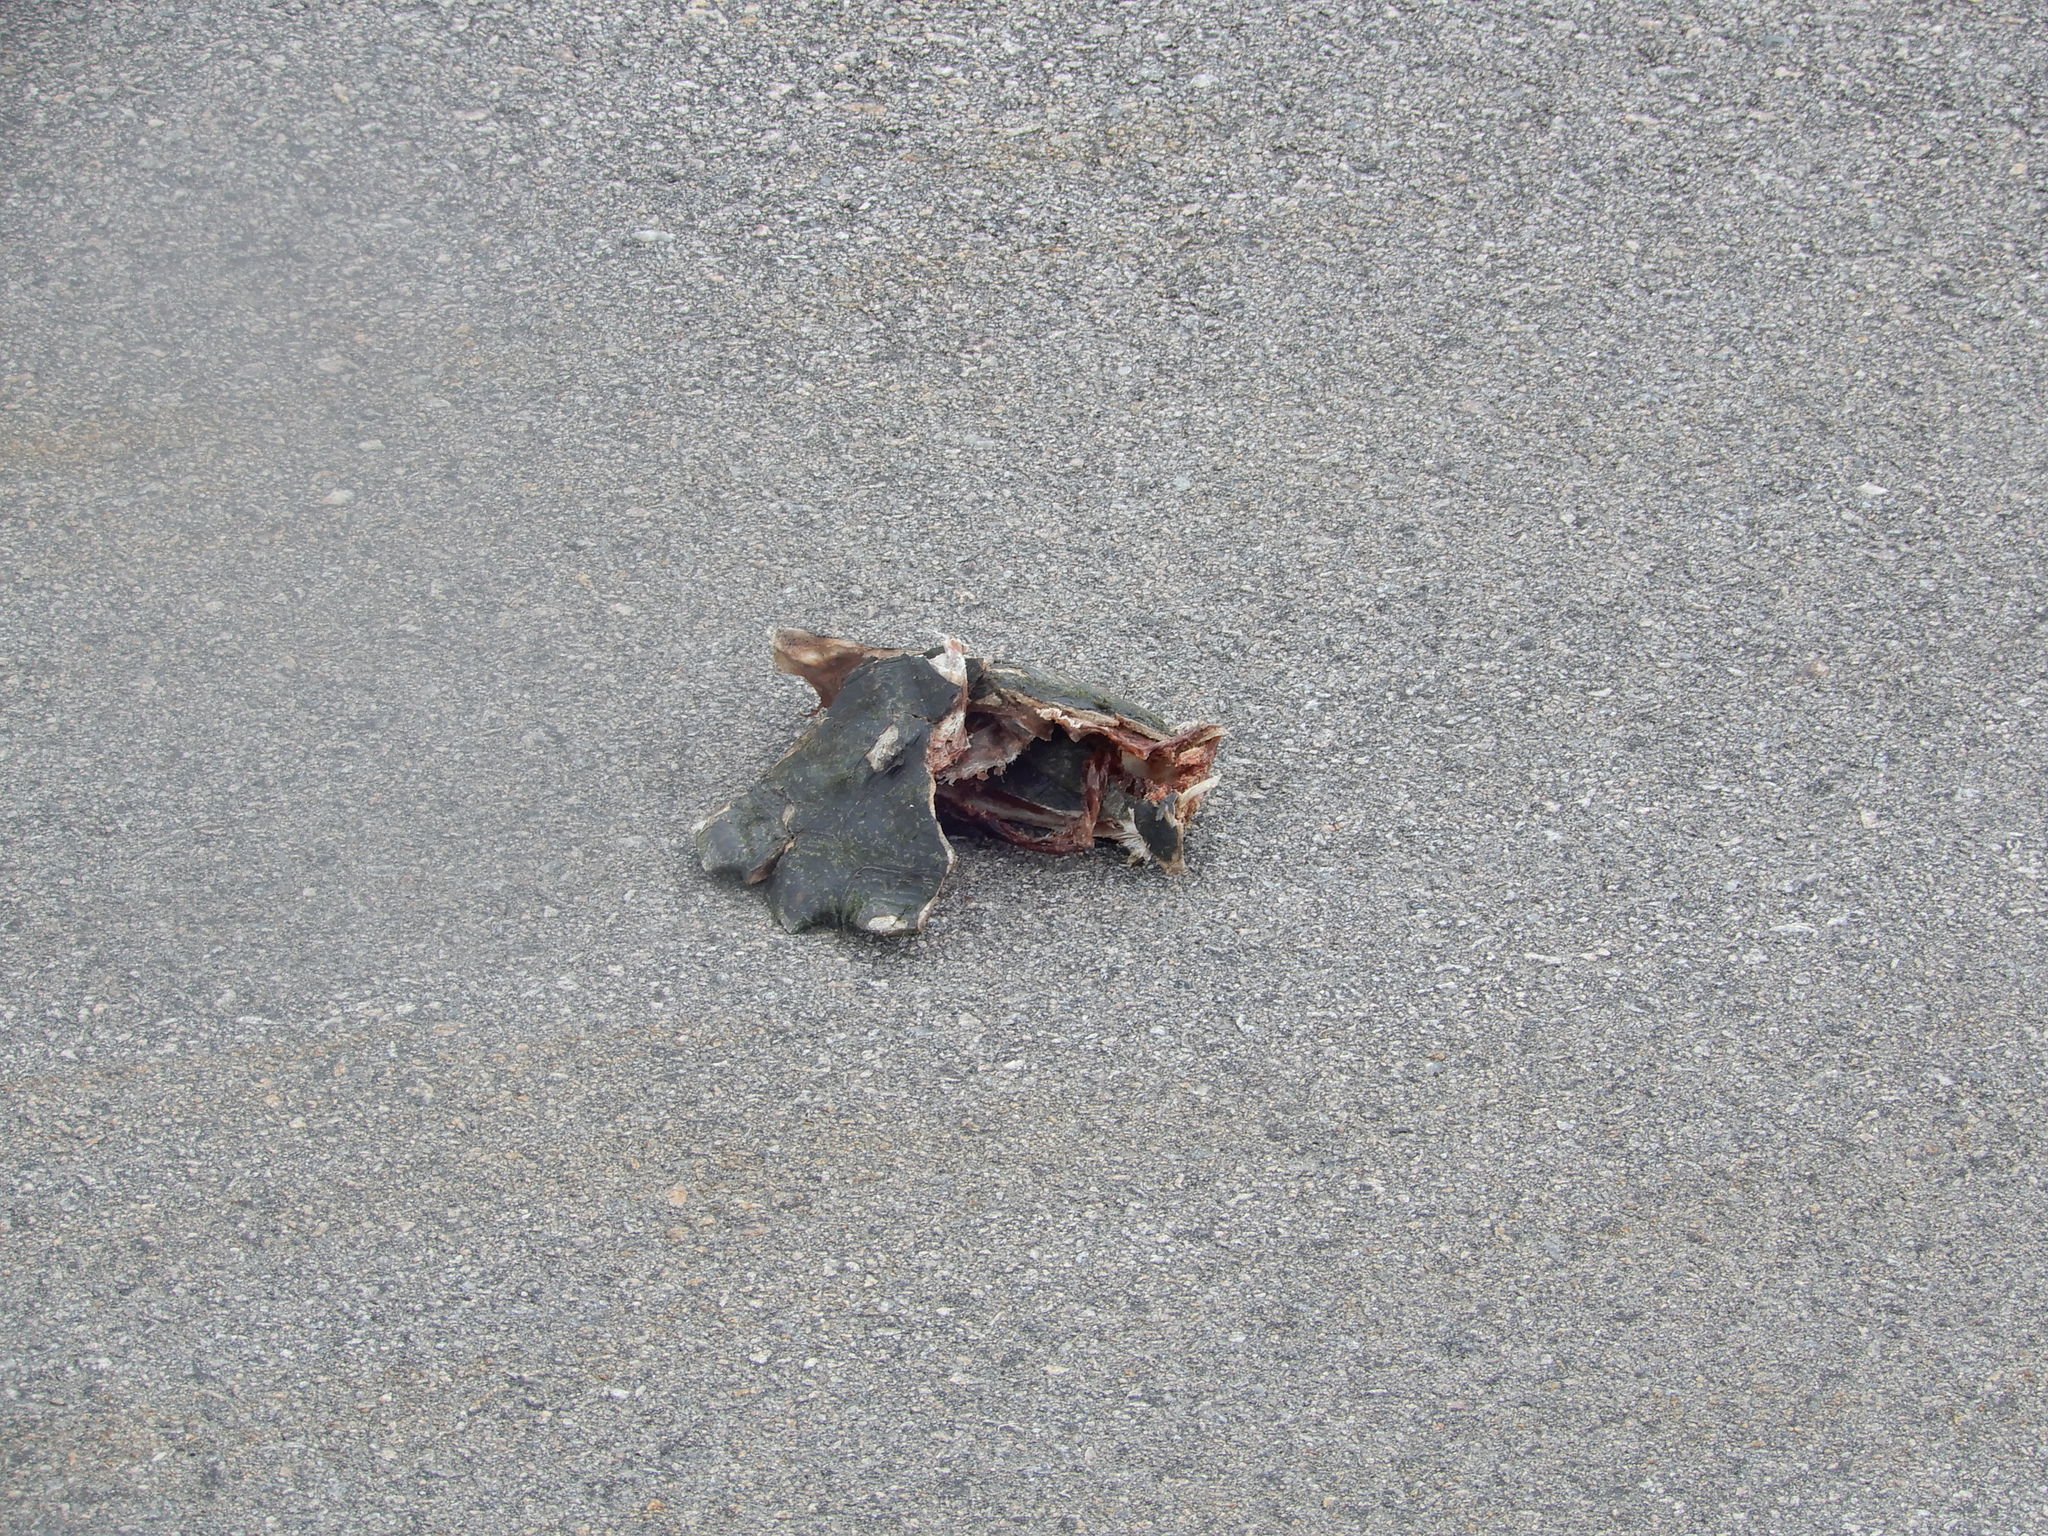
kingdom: Animalia
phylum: Chordata
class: Testudines
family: Chelydridae
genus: Chelydra
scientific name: Chelydra serpentina
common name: Common snapping turtle
